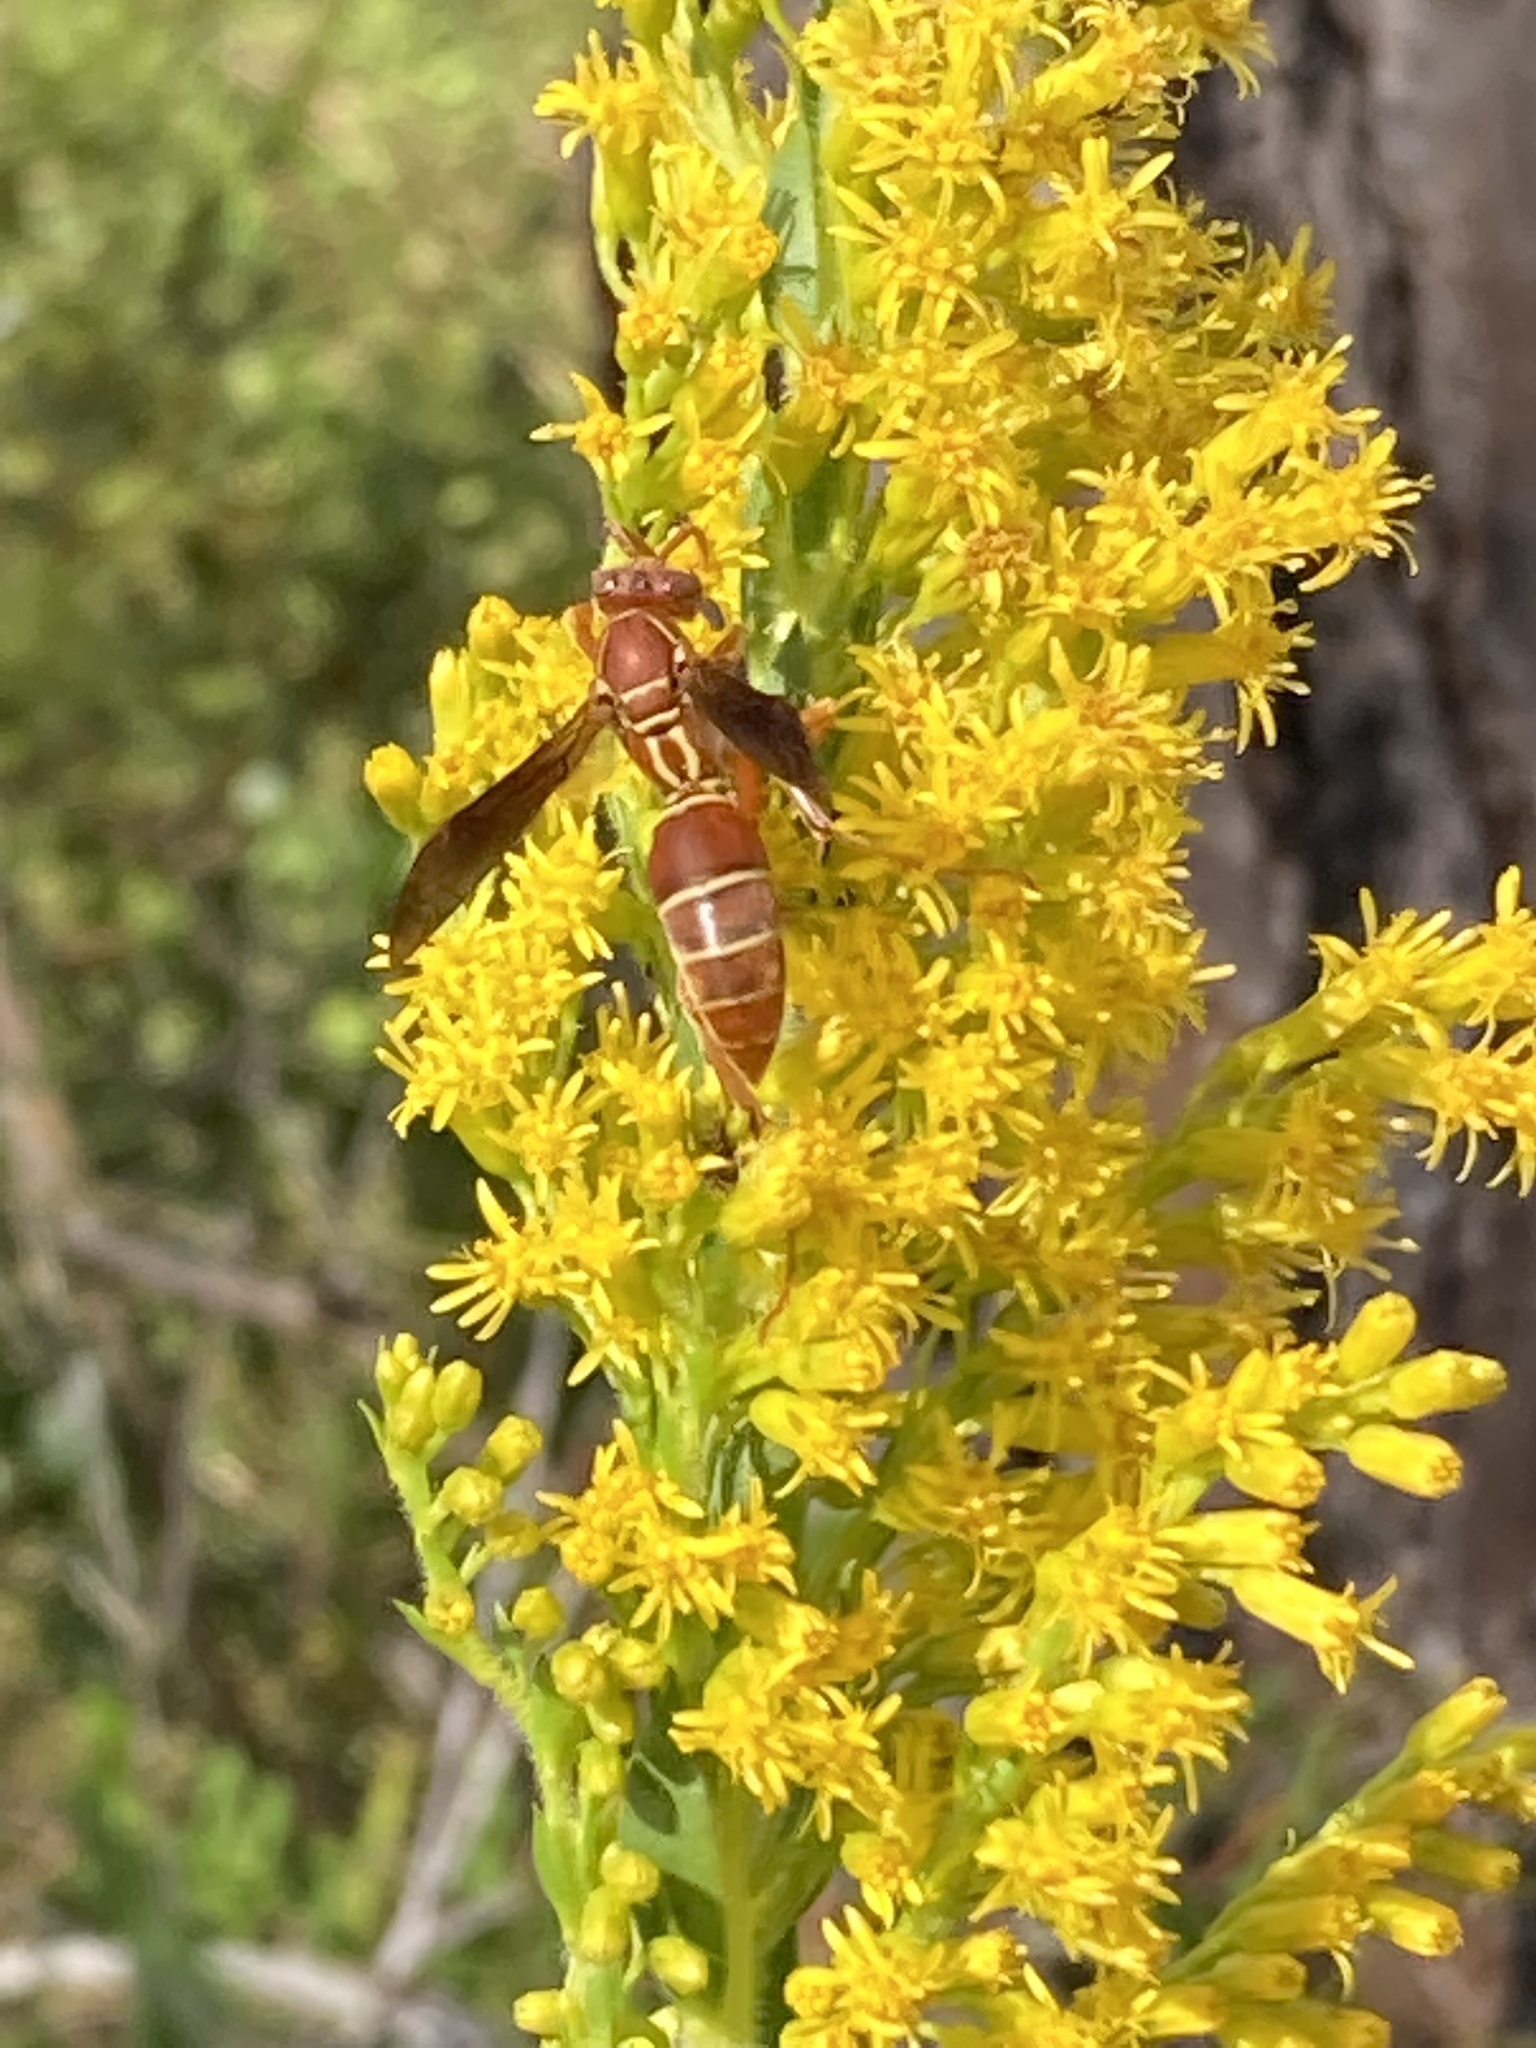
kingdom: Animalia
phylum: Arthropoda
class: Insecta
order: Hymenoptera
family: Eumenidae
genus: Polistes
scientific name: Polistes bellicosus
